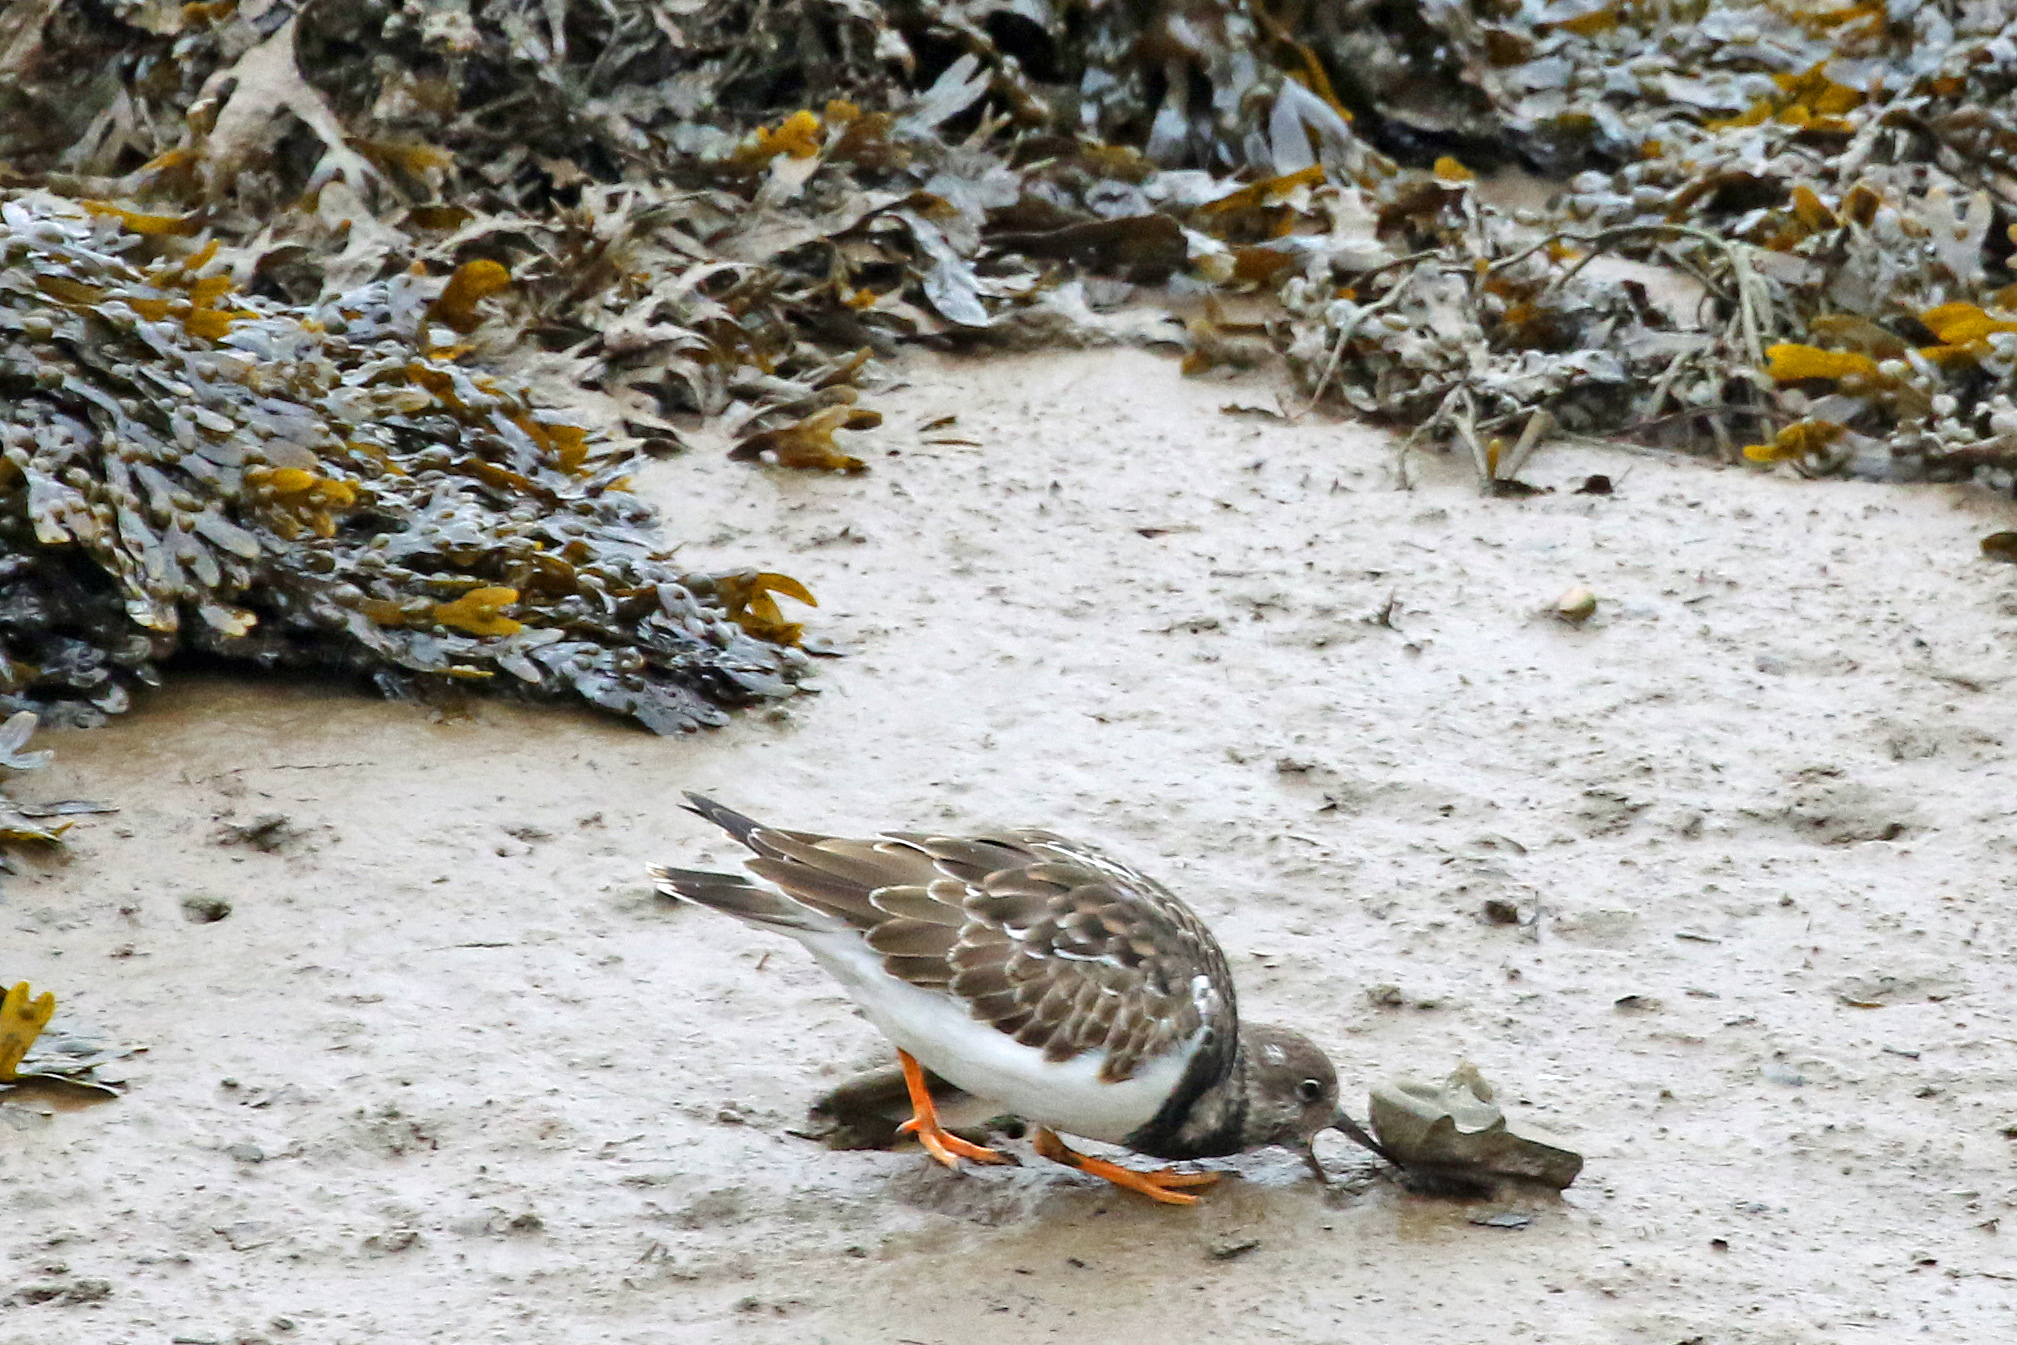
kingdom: Animalia
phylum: Chordata
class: Aves
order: Charadriiformes
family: Scolopacidae
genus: Arenaria
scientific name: Arenaria interpres
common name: Ruddy turnstone
